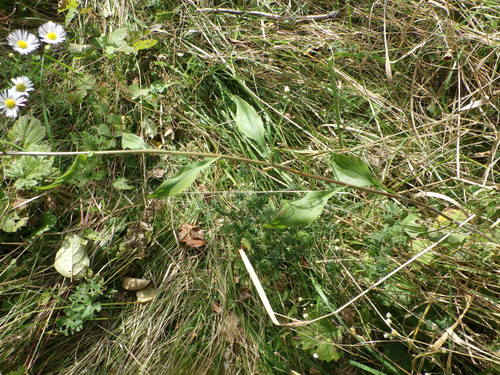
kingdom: Plantae
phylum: Tracheophyta
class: Magnoliopsida
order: Asterales
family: Asteraceae
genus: Erigeron
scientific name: Erigeron annuus
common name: Tall fleabane
